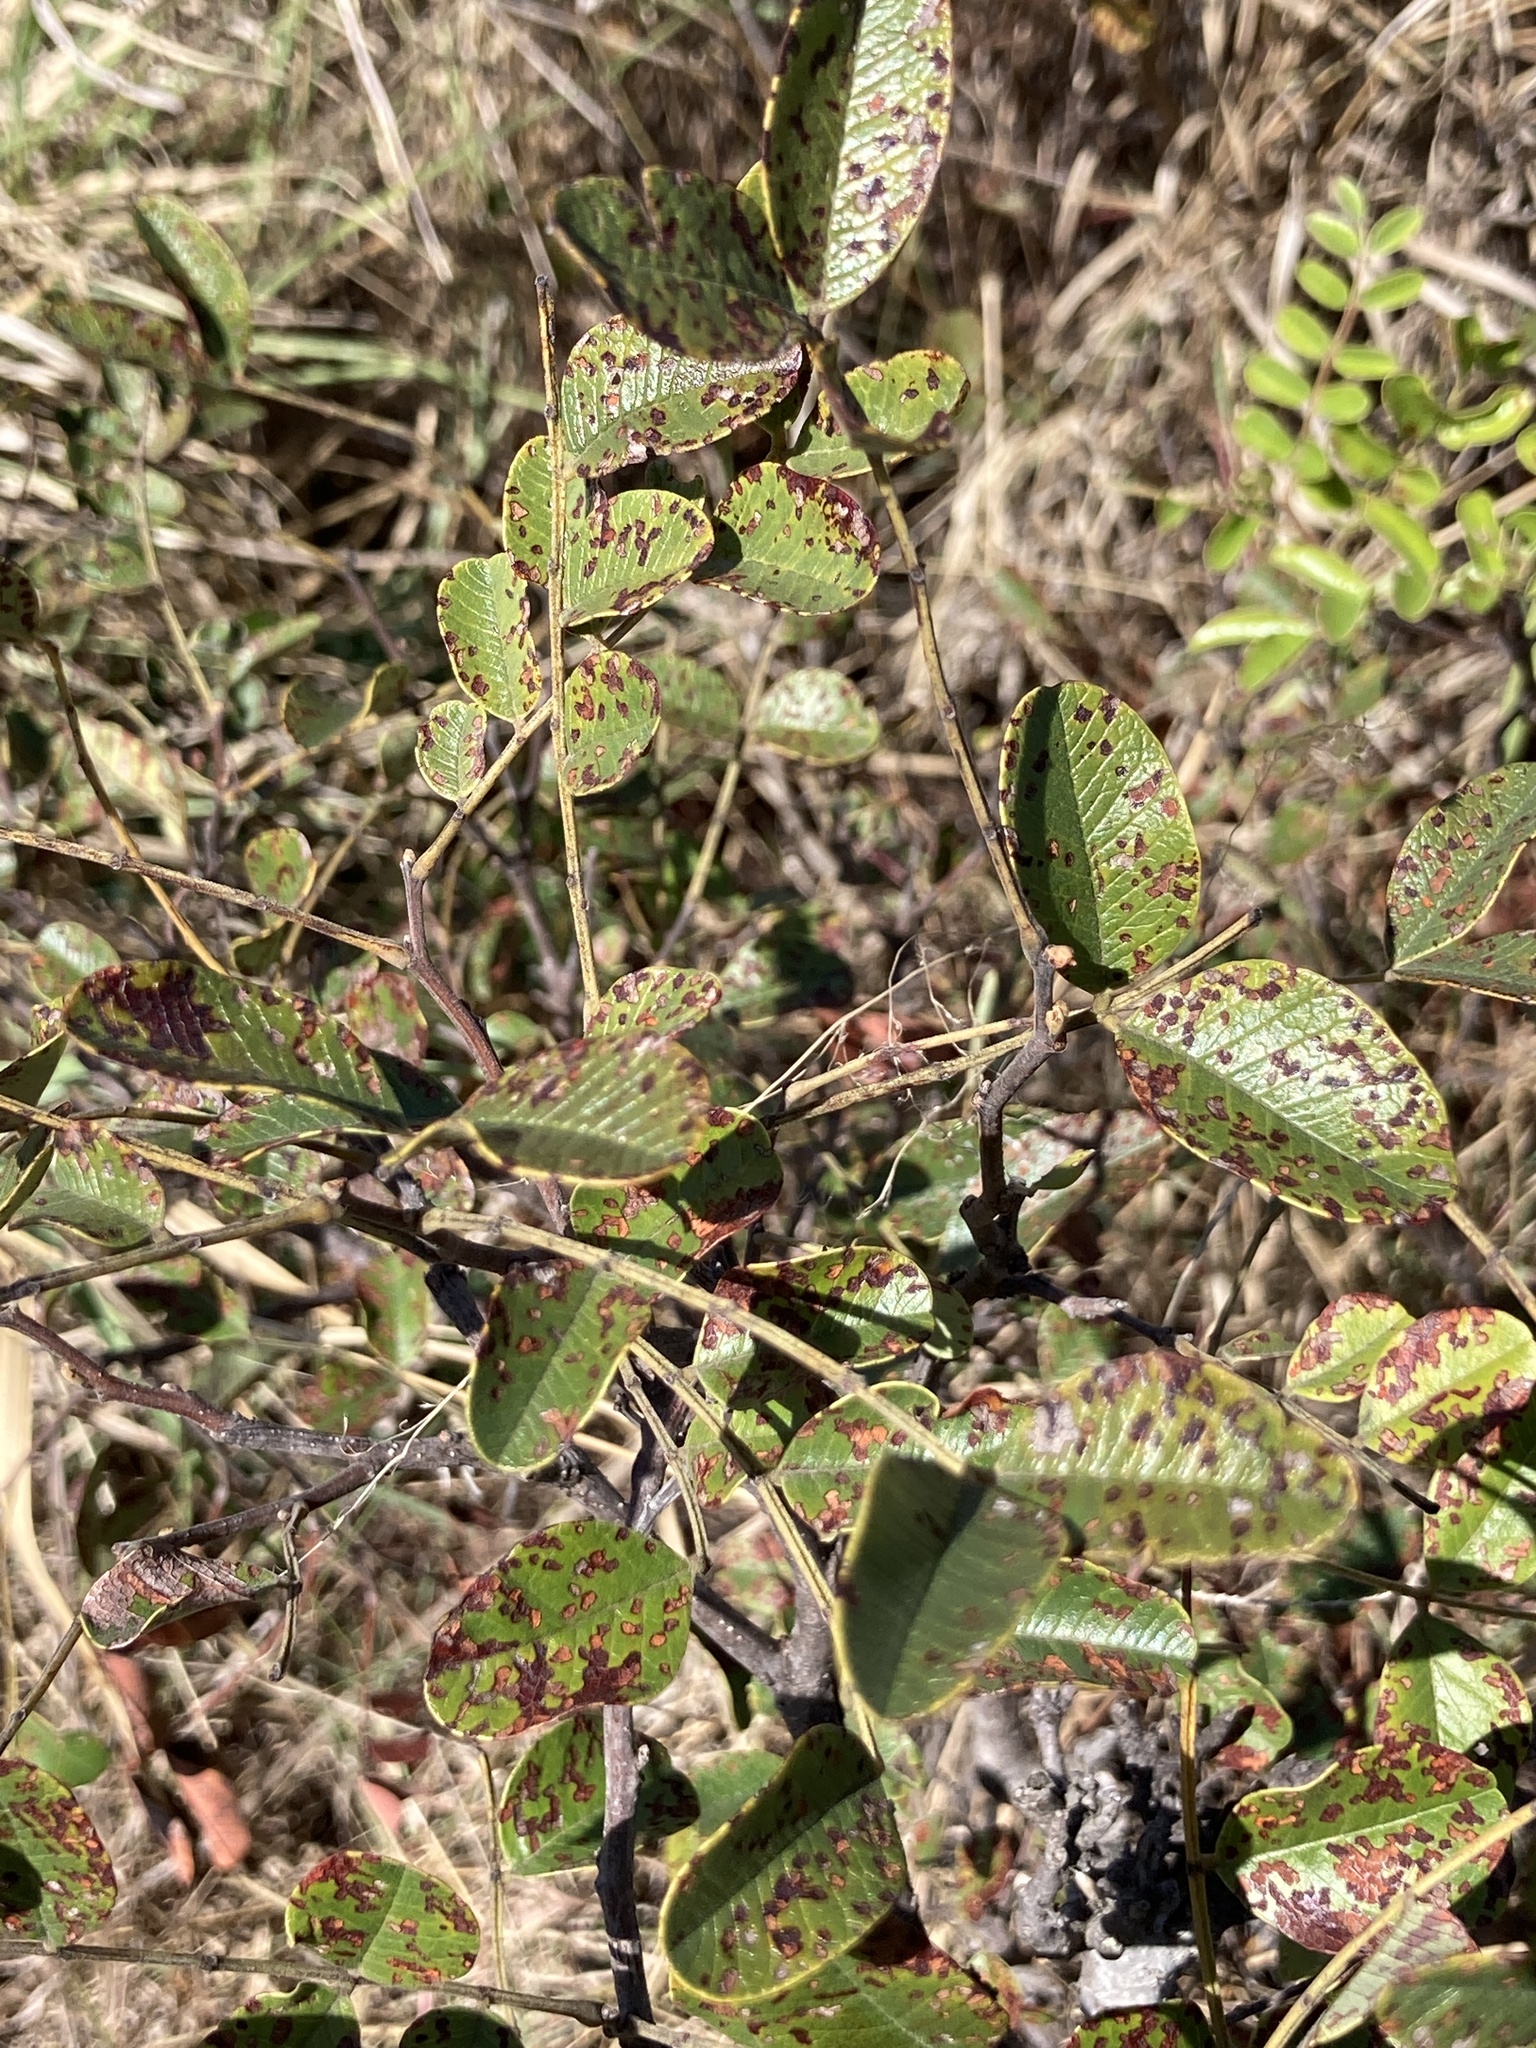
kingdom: Plantae
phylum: Tracheophyta
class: Magnoliopsida
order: Fabales
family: Fabaceae
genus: Cassia
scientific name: Cassia tomentella
